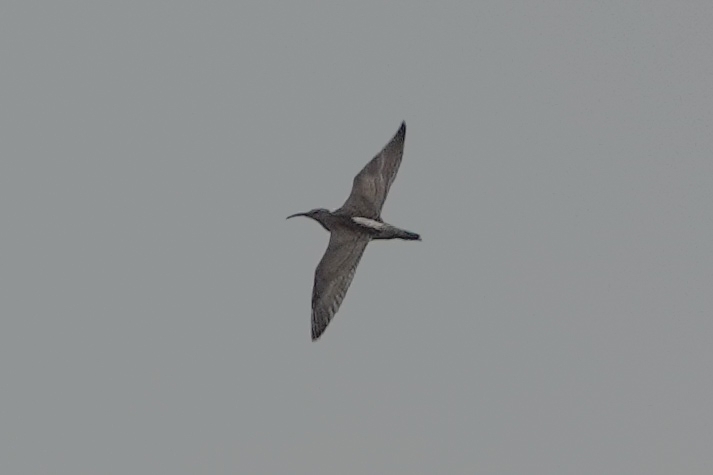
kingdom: Animalia
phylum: Chordata
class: Aves
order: Charadriiformes
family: Scolopacidae
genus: Numenius
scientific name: Numenius phaeopus
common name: Whimbrel
